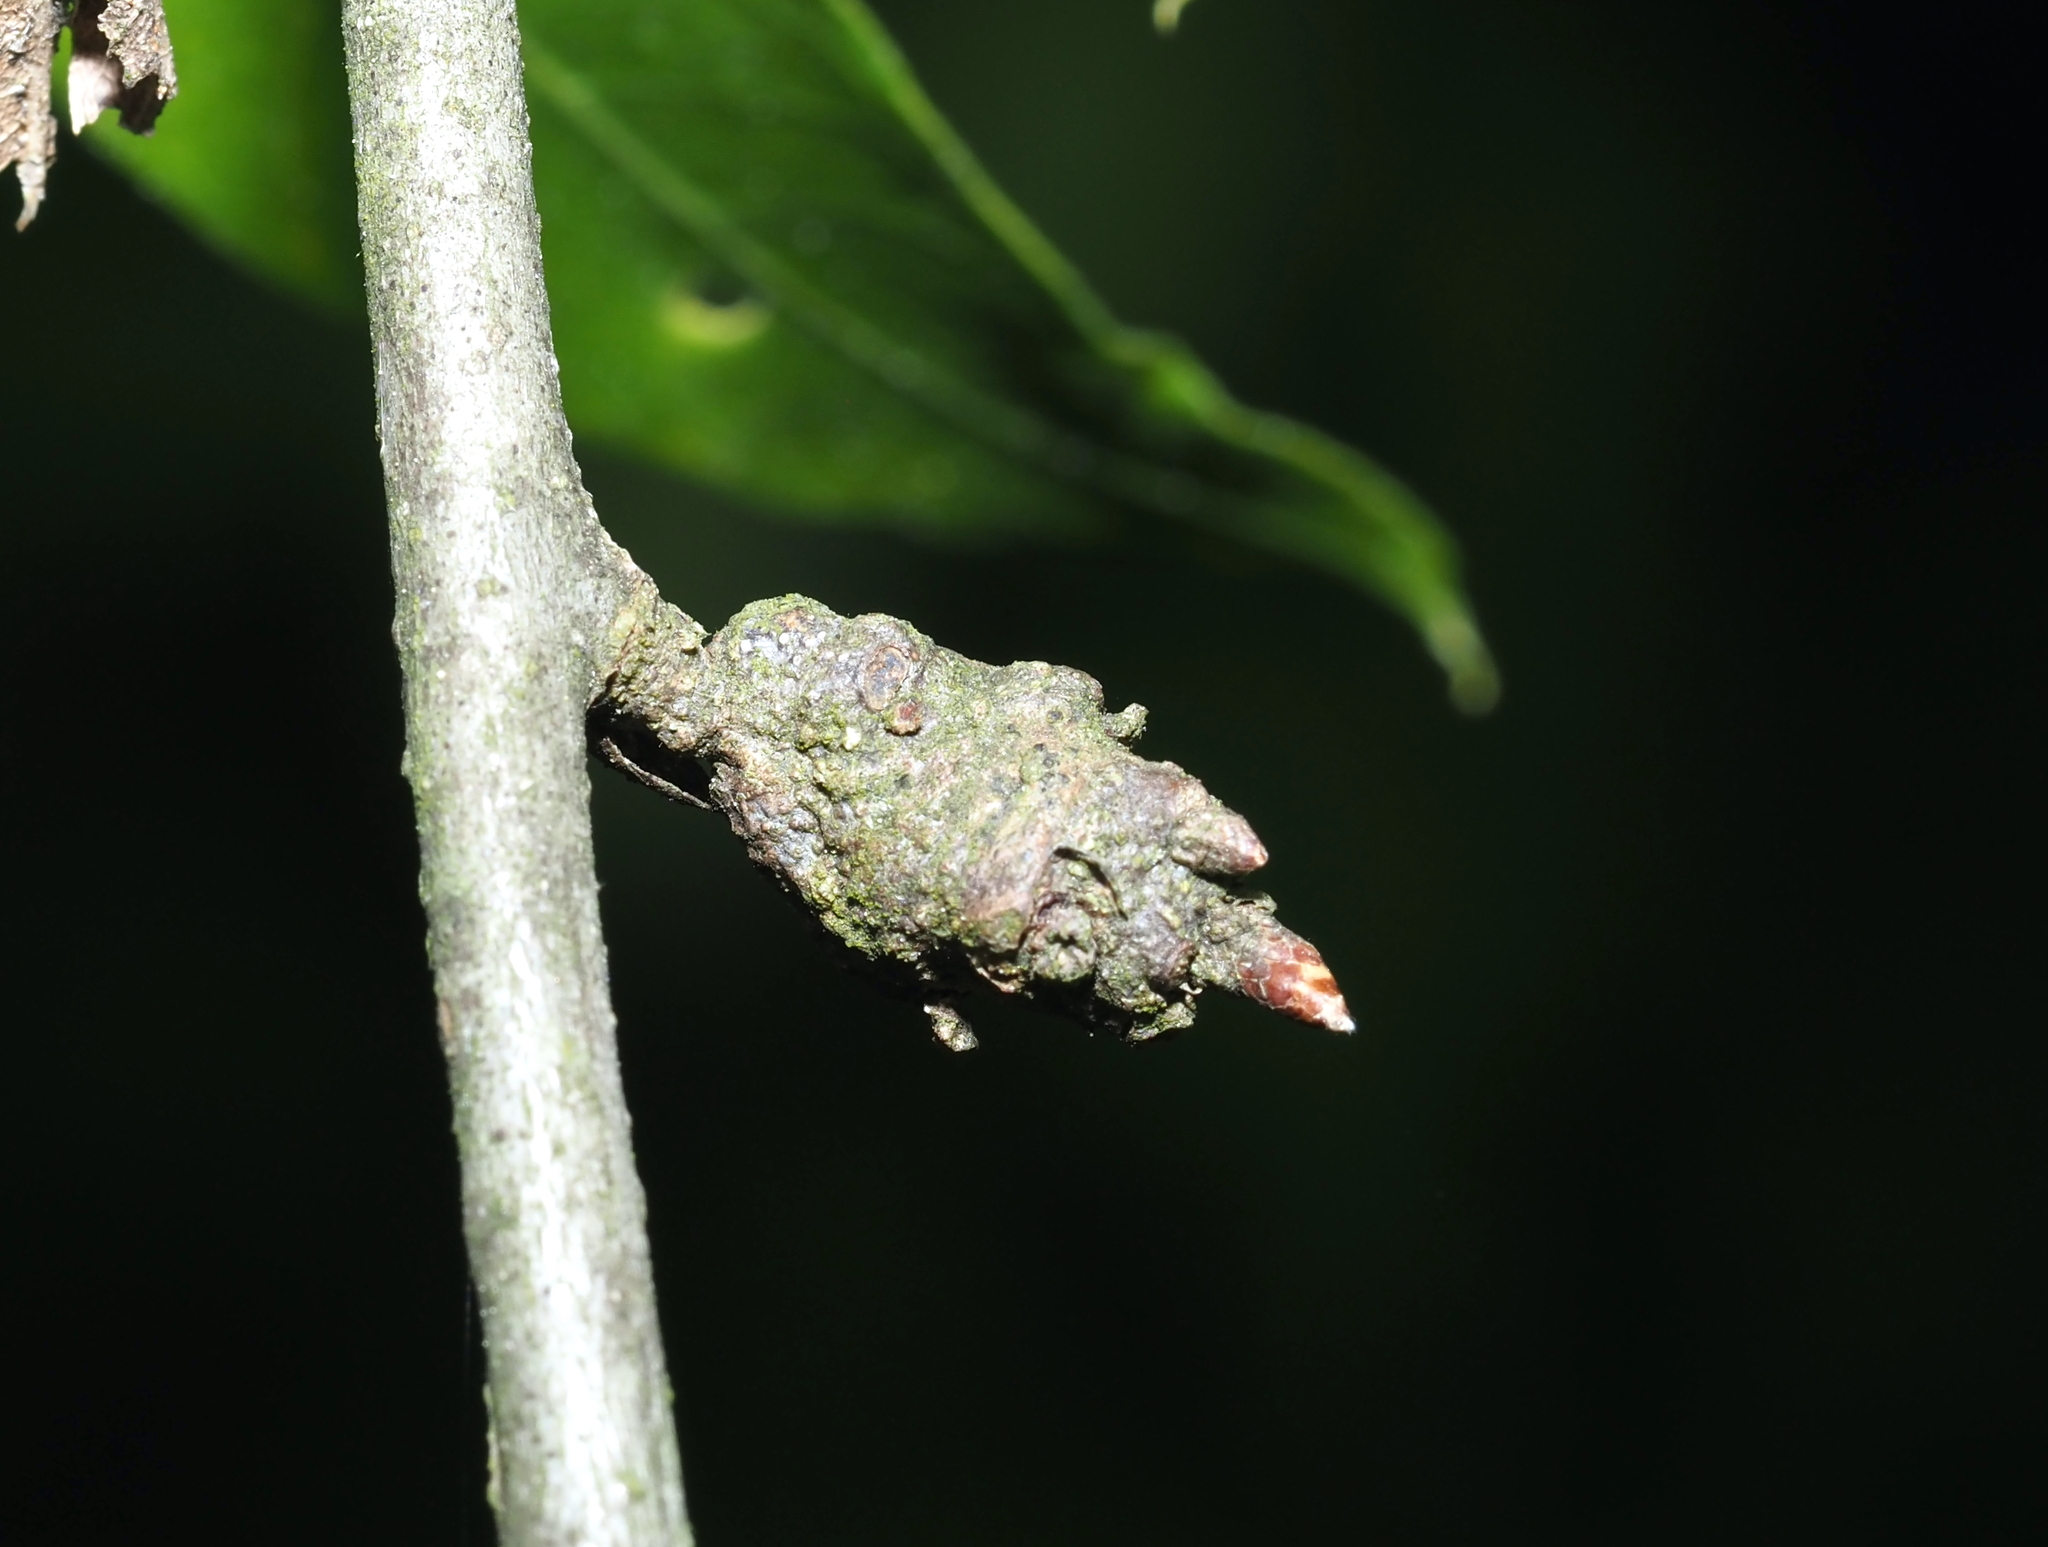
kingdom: Animalia
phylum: Arthropoda
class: Insecta
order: Hymenoptera
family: Cynipidae
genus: Callirhytis
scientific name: Callirhytis
